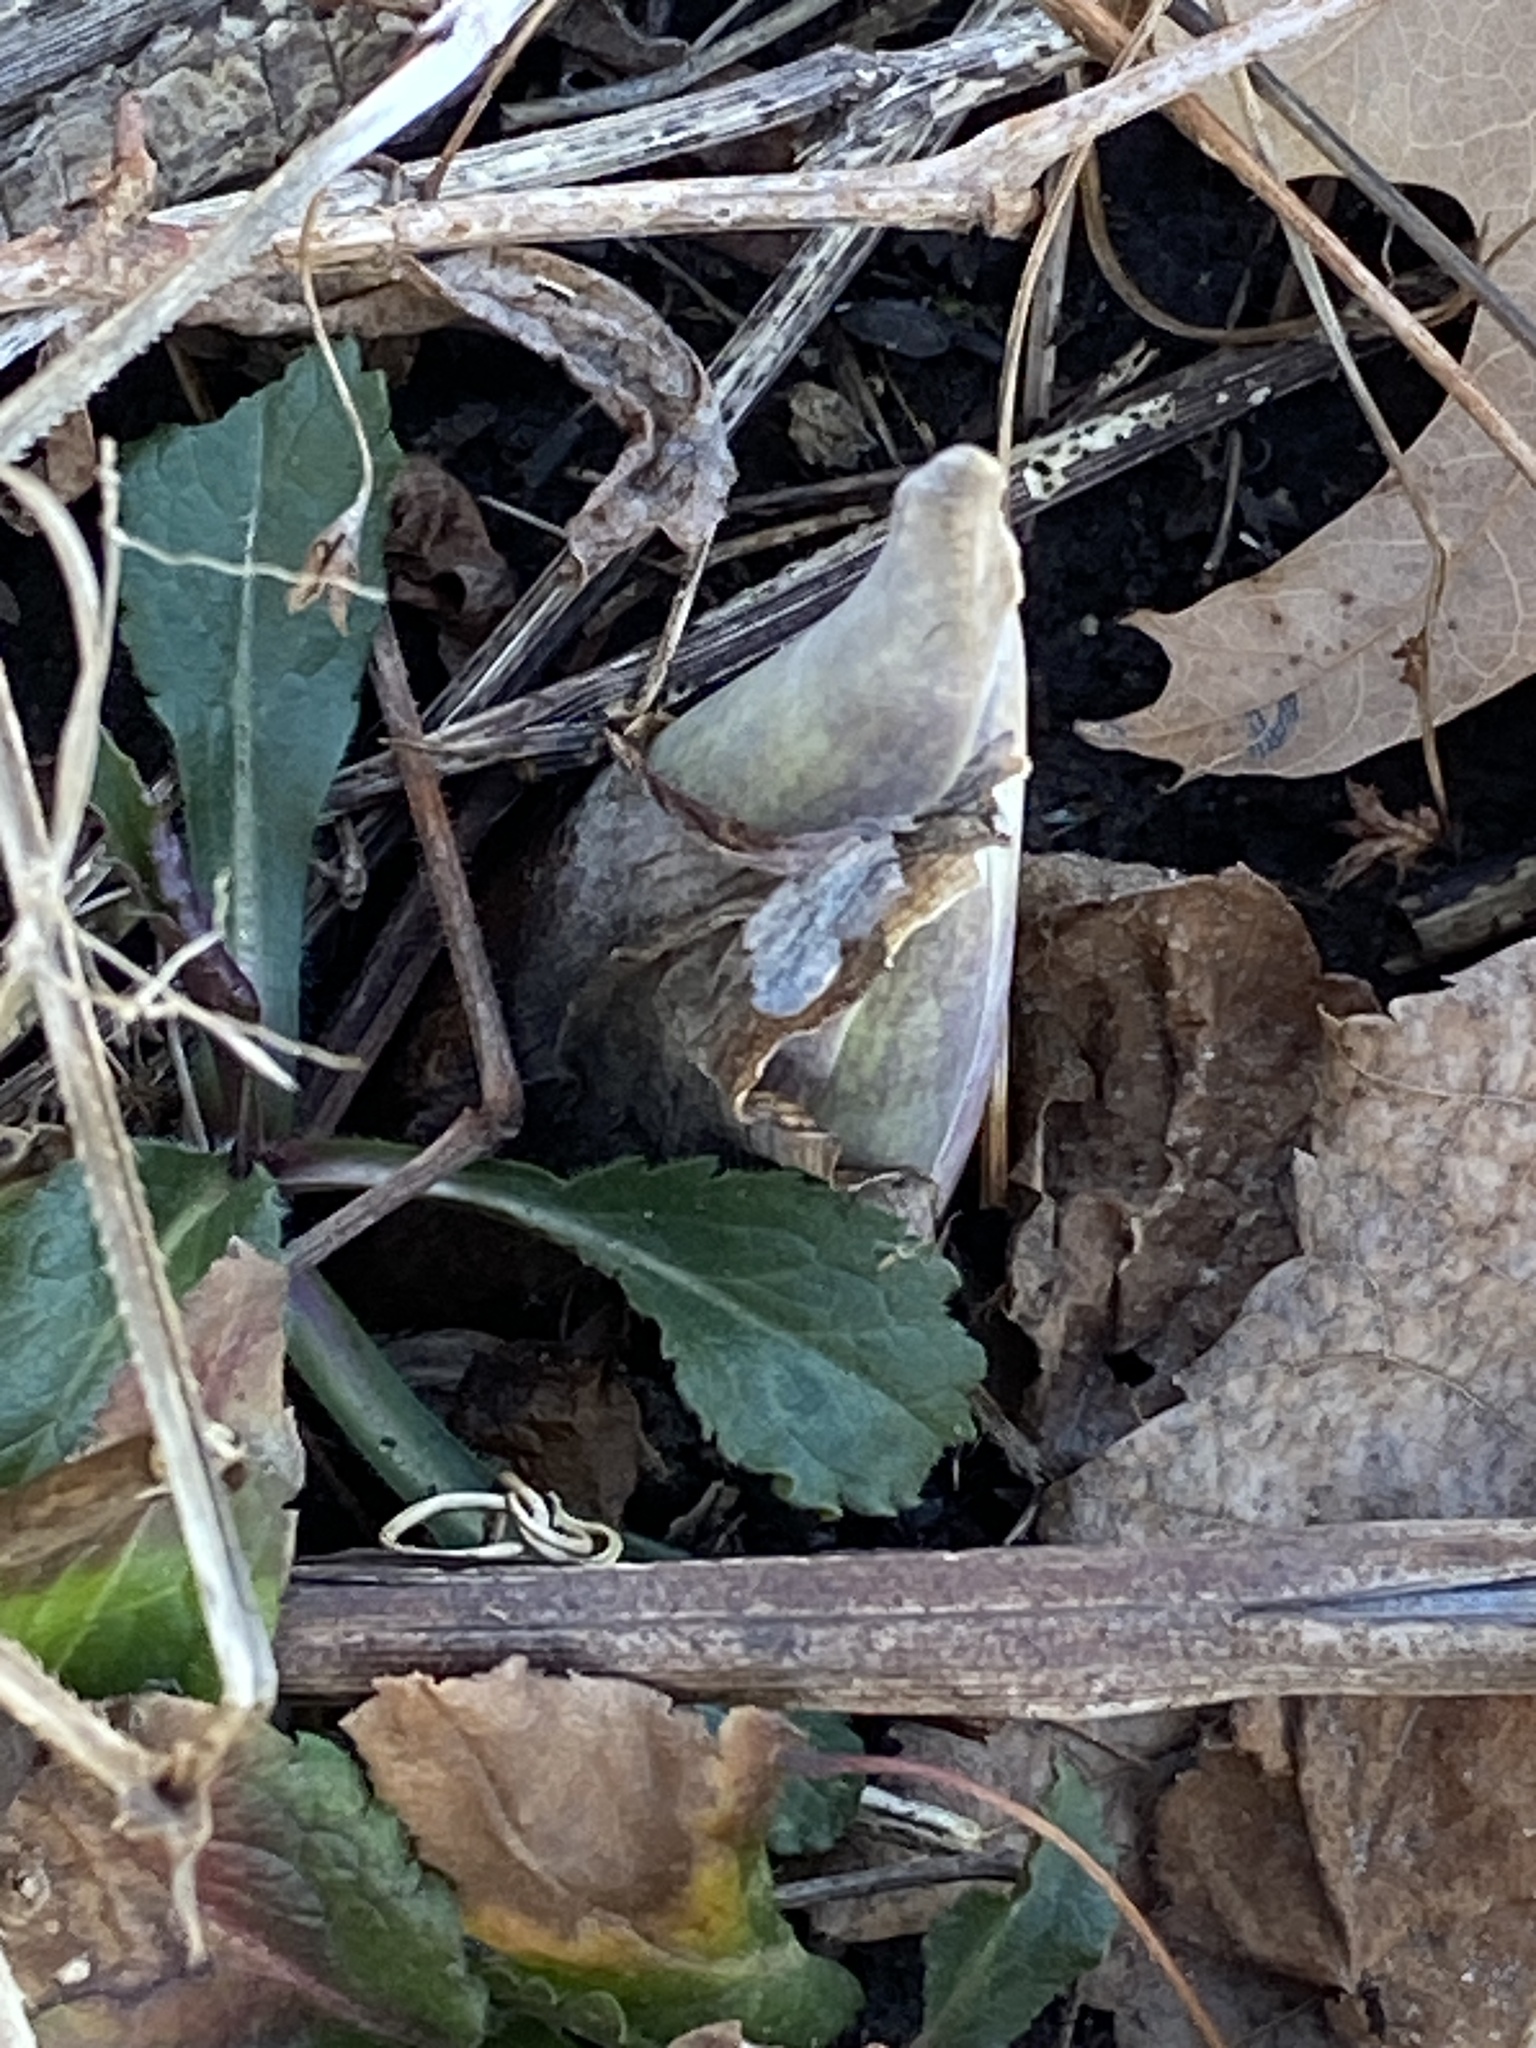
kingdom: Plantae
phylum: Tracheophyta
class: Liliopsida
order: Alismatales
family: Araceae
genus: Symplocarpus
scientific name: Symplocarpus foetidus
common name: Eastern skunk cabbage
